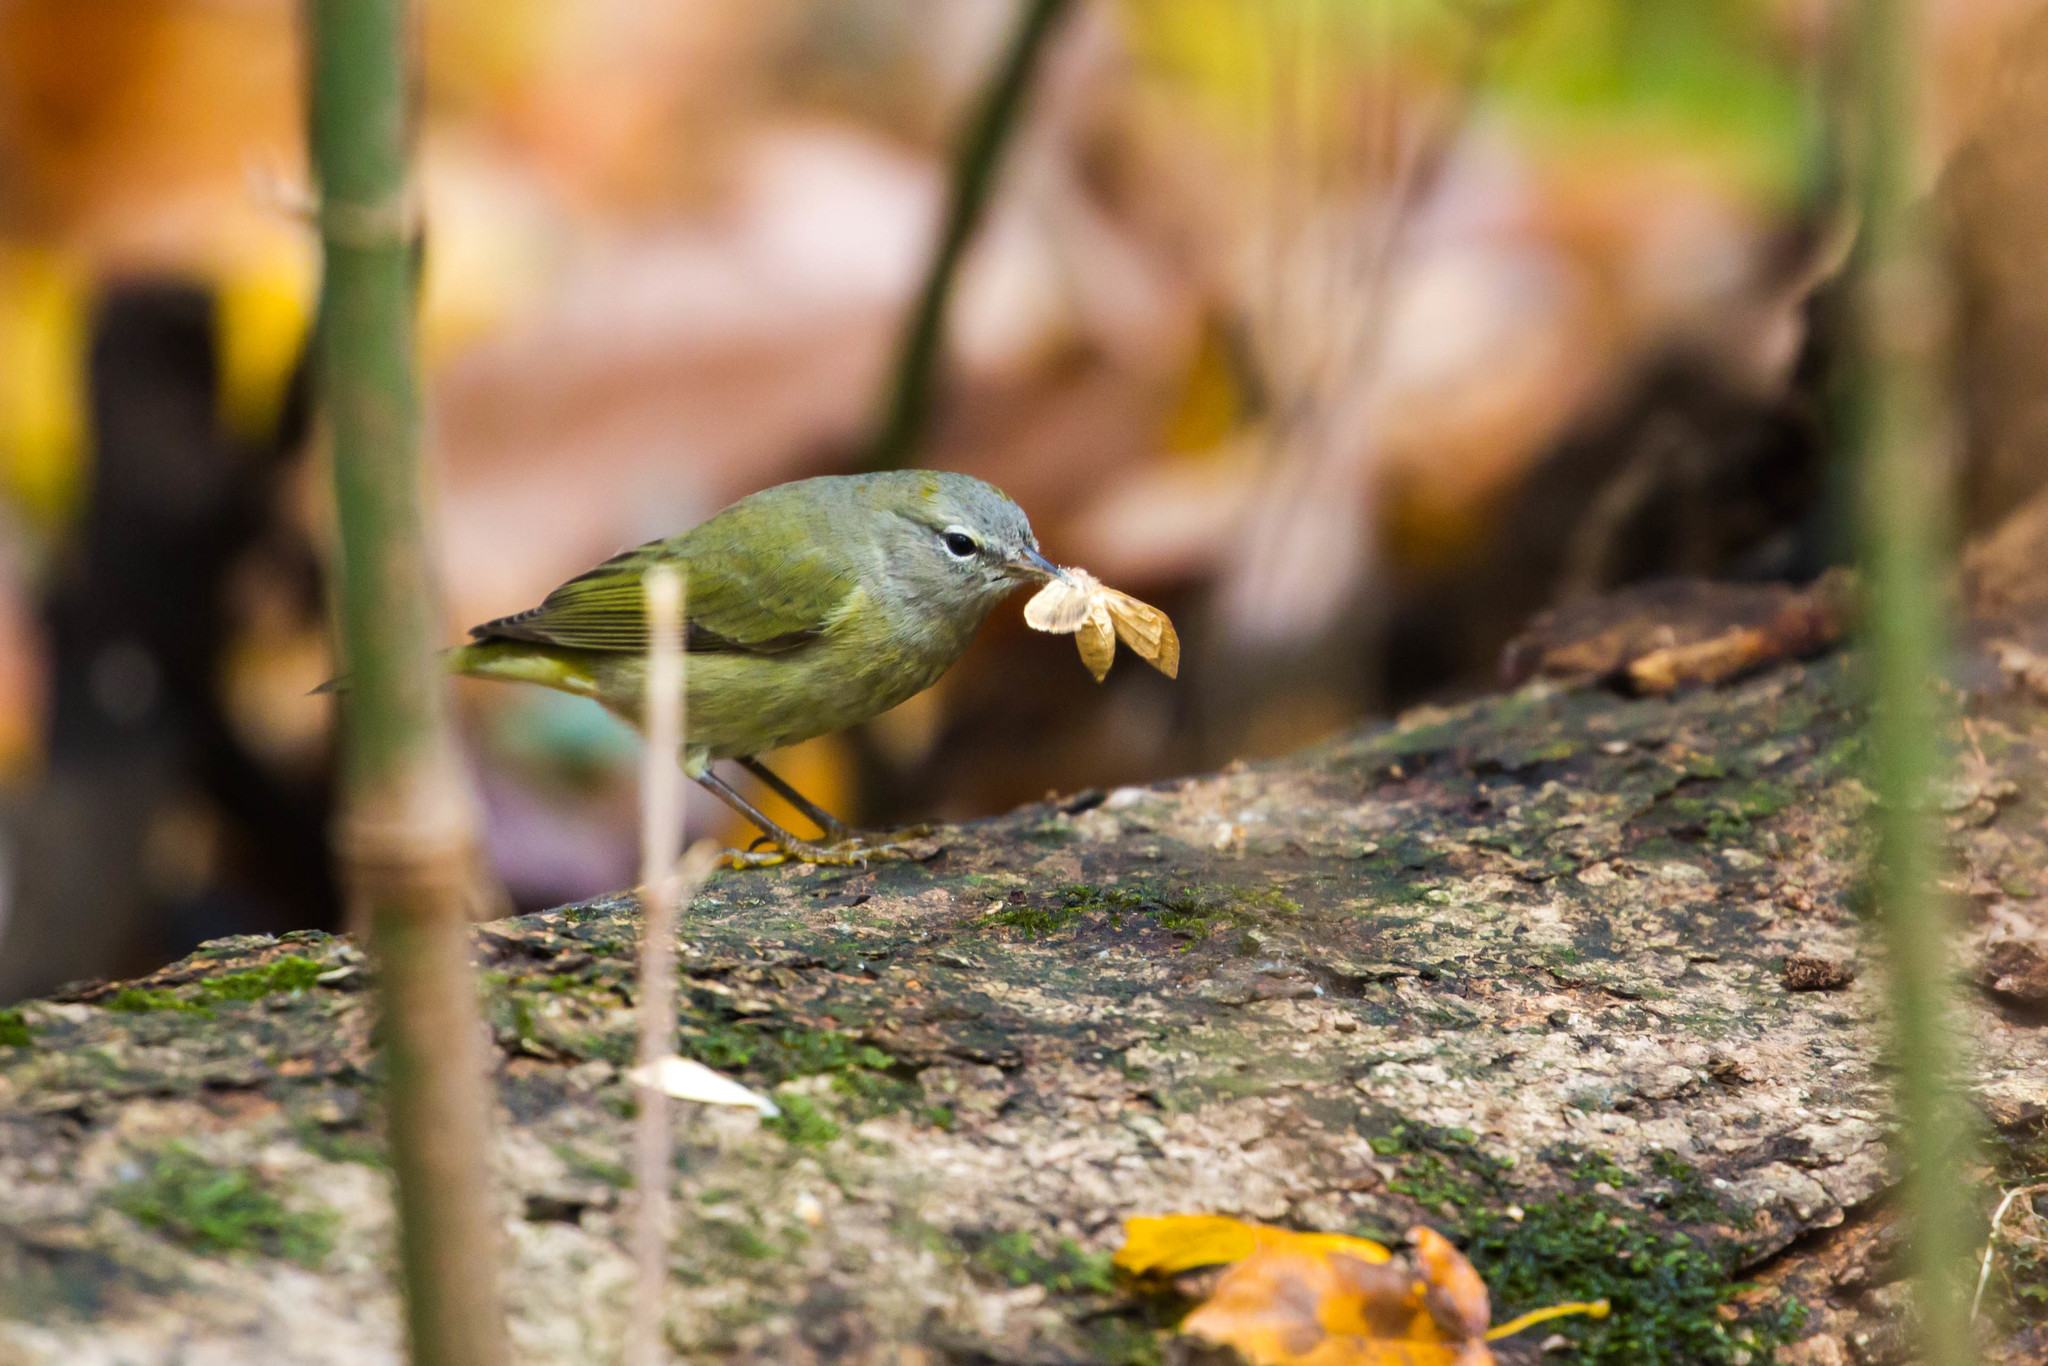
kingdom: Animalia
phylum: Chordata
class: Aves
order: Passeriformes
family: Parulidae
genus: Leiothlypis
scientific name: Leiothlypis celata
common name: Orange-crowned warbler
